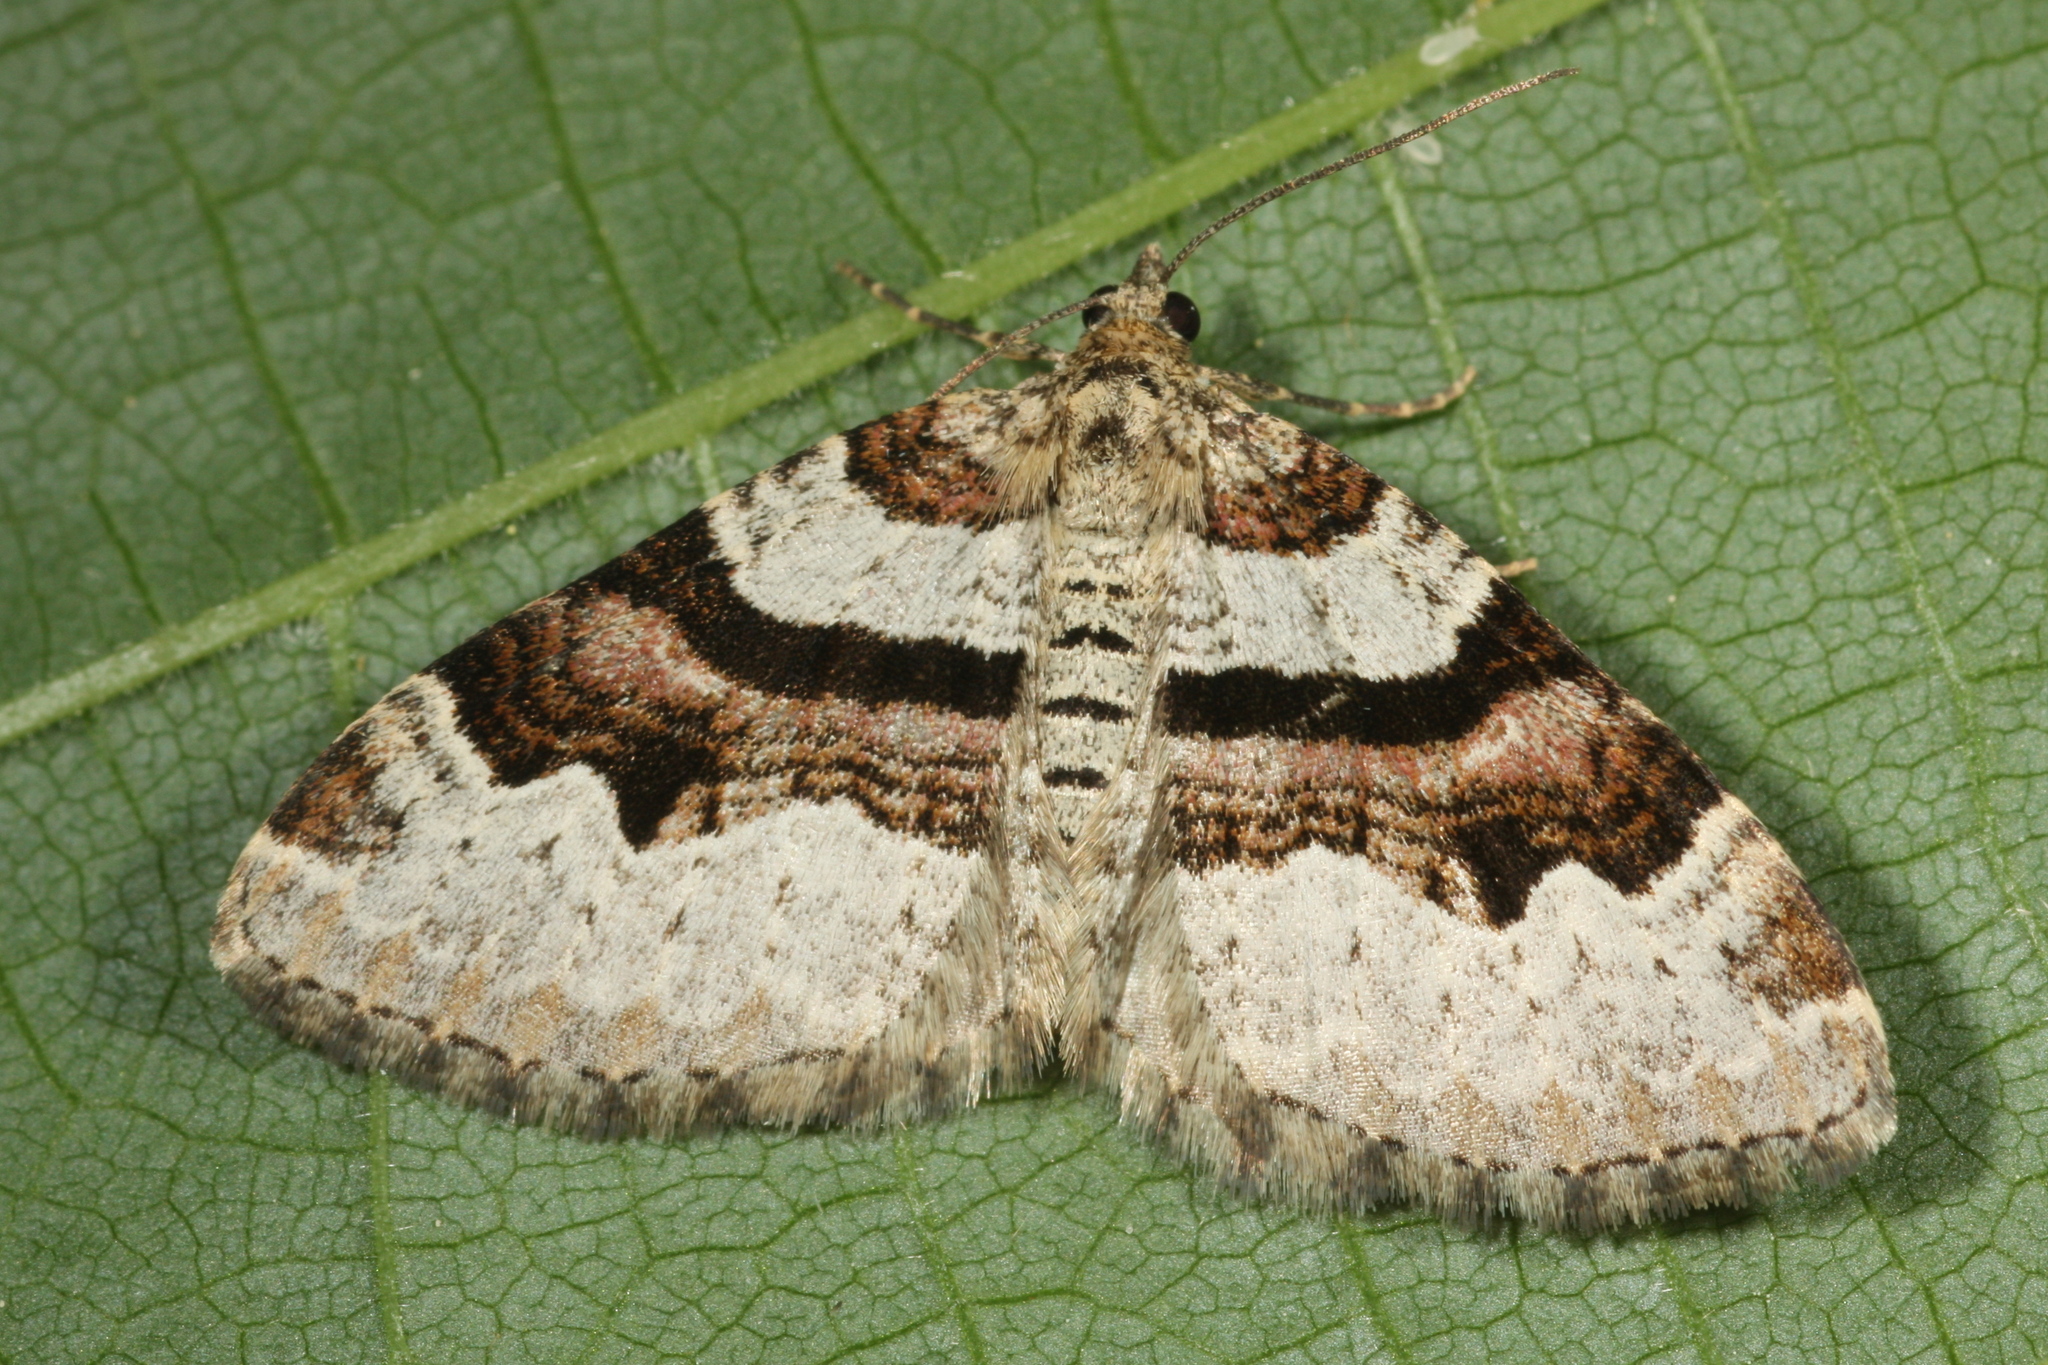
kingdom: Animalia
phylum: Arthropoda
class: Insecta
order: Lepidoptera
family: Geometridae
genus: Xanthorhoe
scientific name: Xanthorhoe designata
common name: Flame carpet
